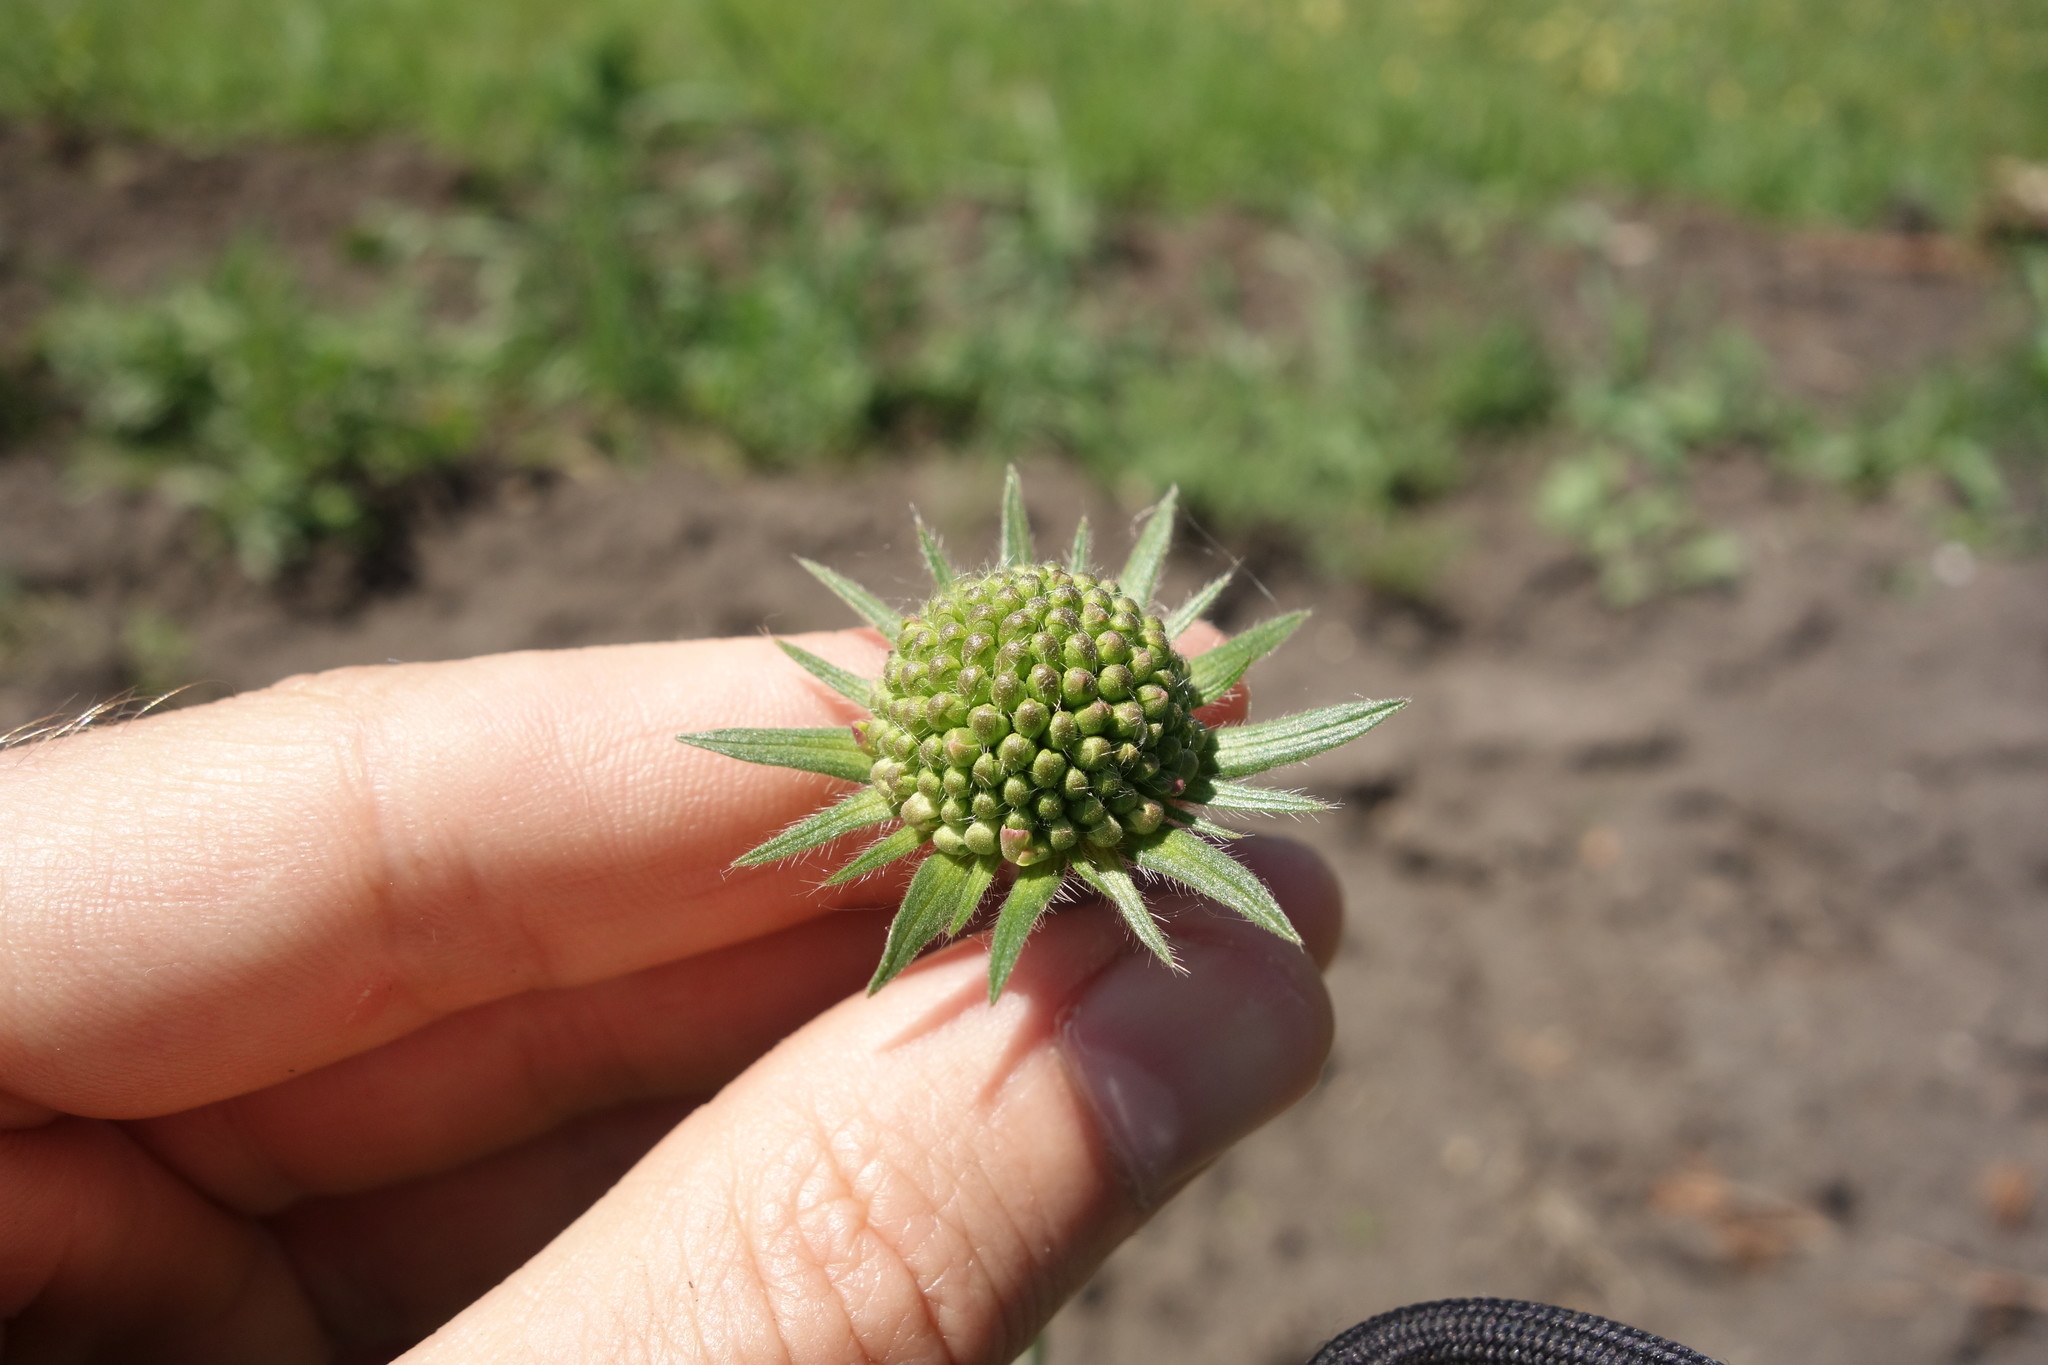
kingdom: Plantae
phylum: Tracheophyta
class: Magnoliopsida
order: Dipsacales
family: Caprifoliaceae
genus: Knautia
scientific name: Knautia arvensis
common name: Field scabiosa
